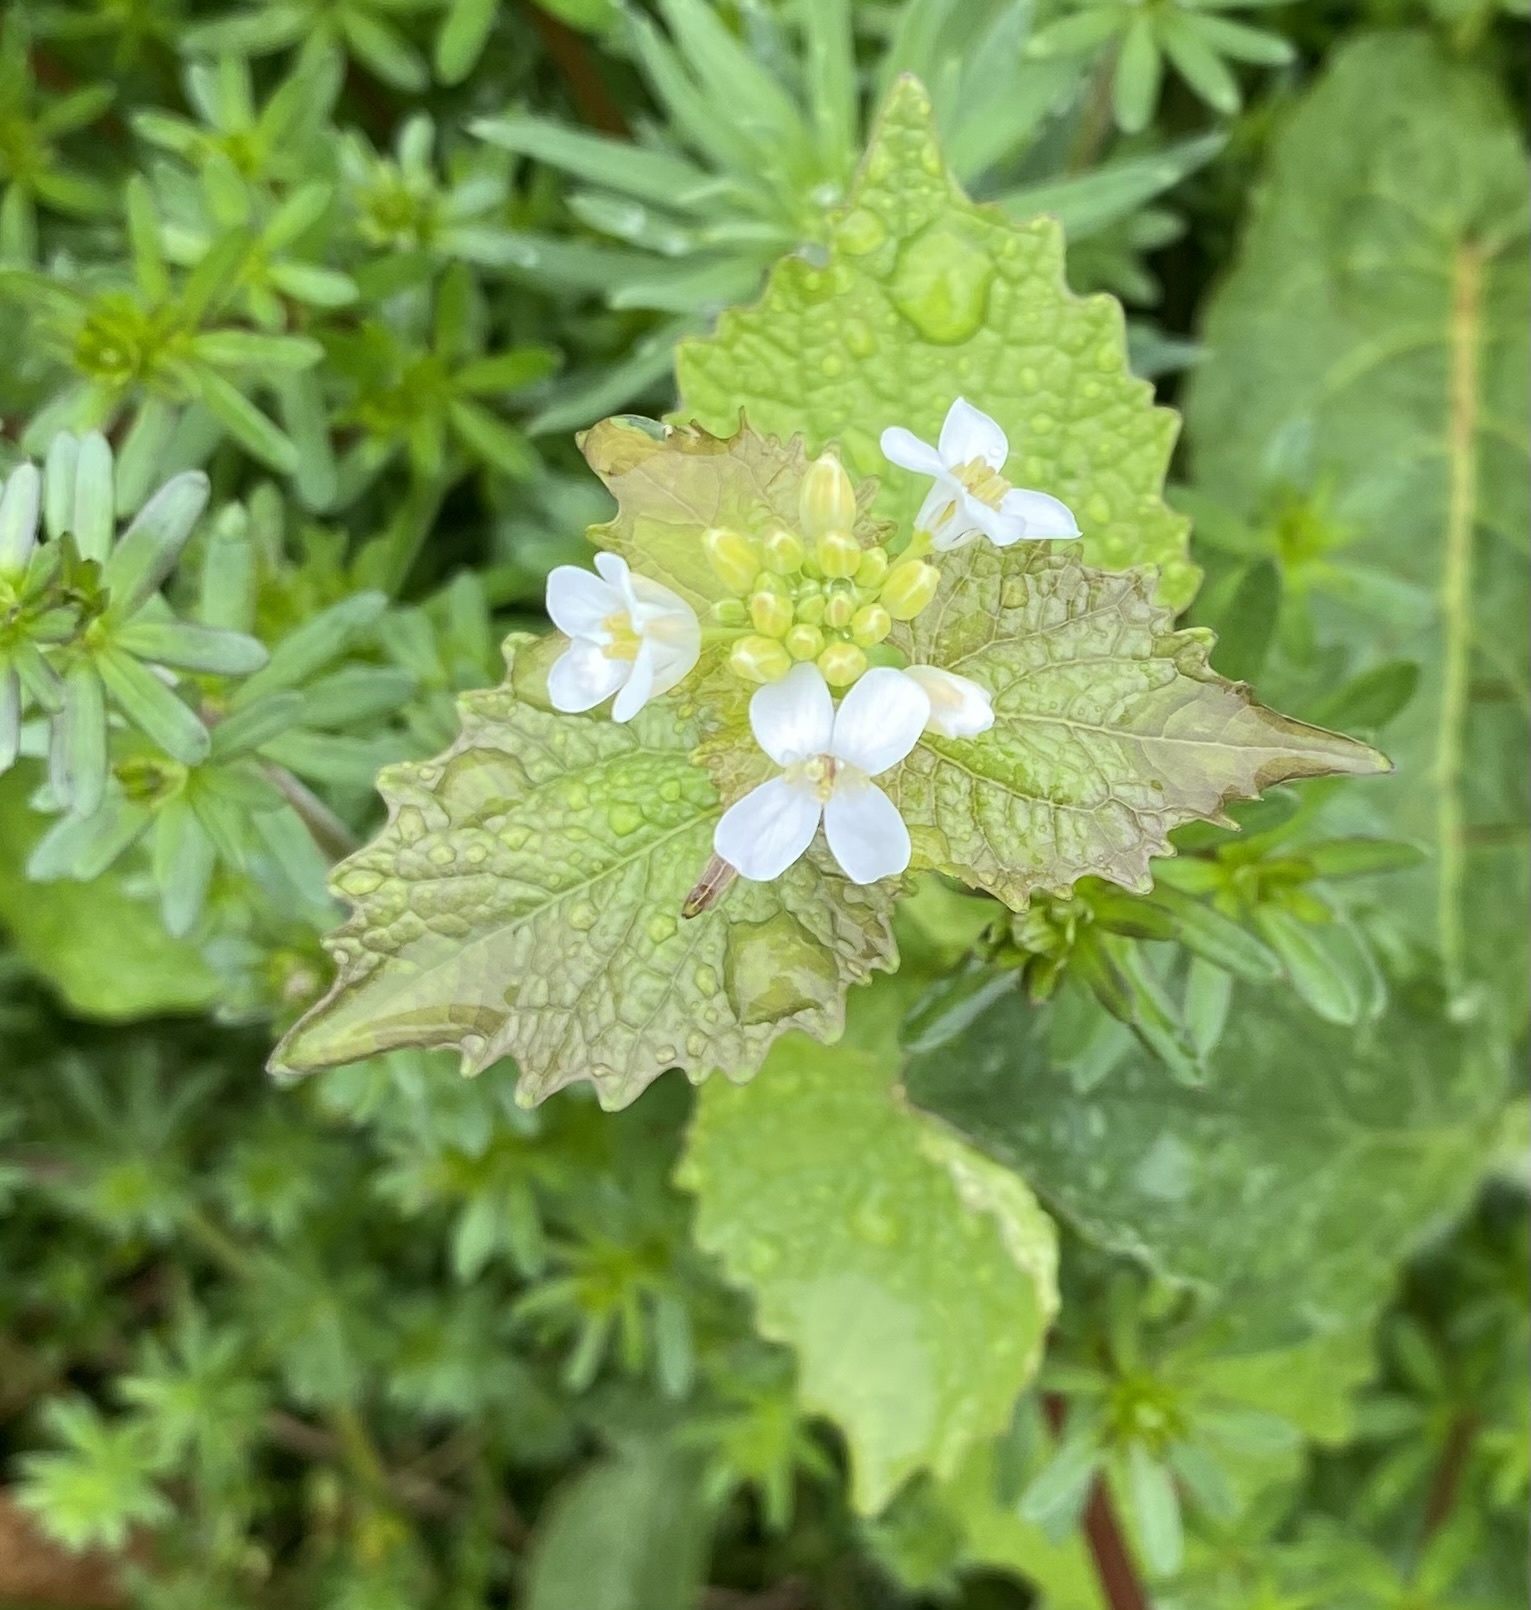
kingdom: Plantae
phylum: Tracheophyta
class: Magnoliopsida
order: Brassicales
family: Brassicaceae
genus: Alliaria
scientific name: Alliaria petiolata
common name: Garlic mustard
